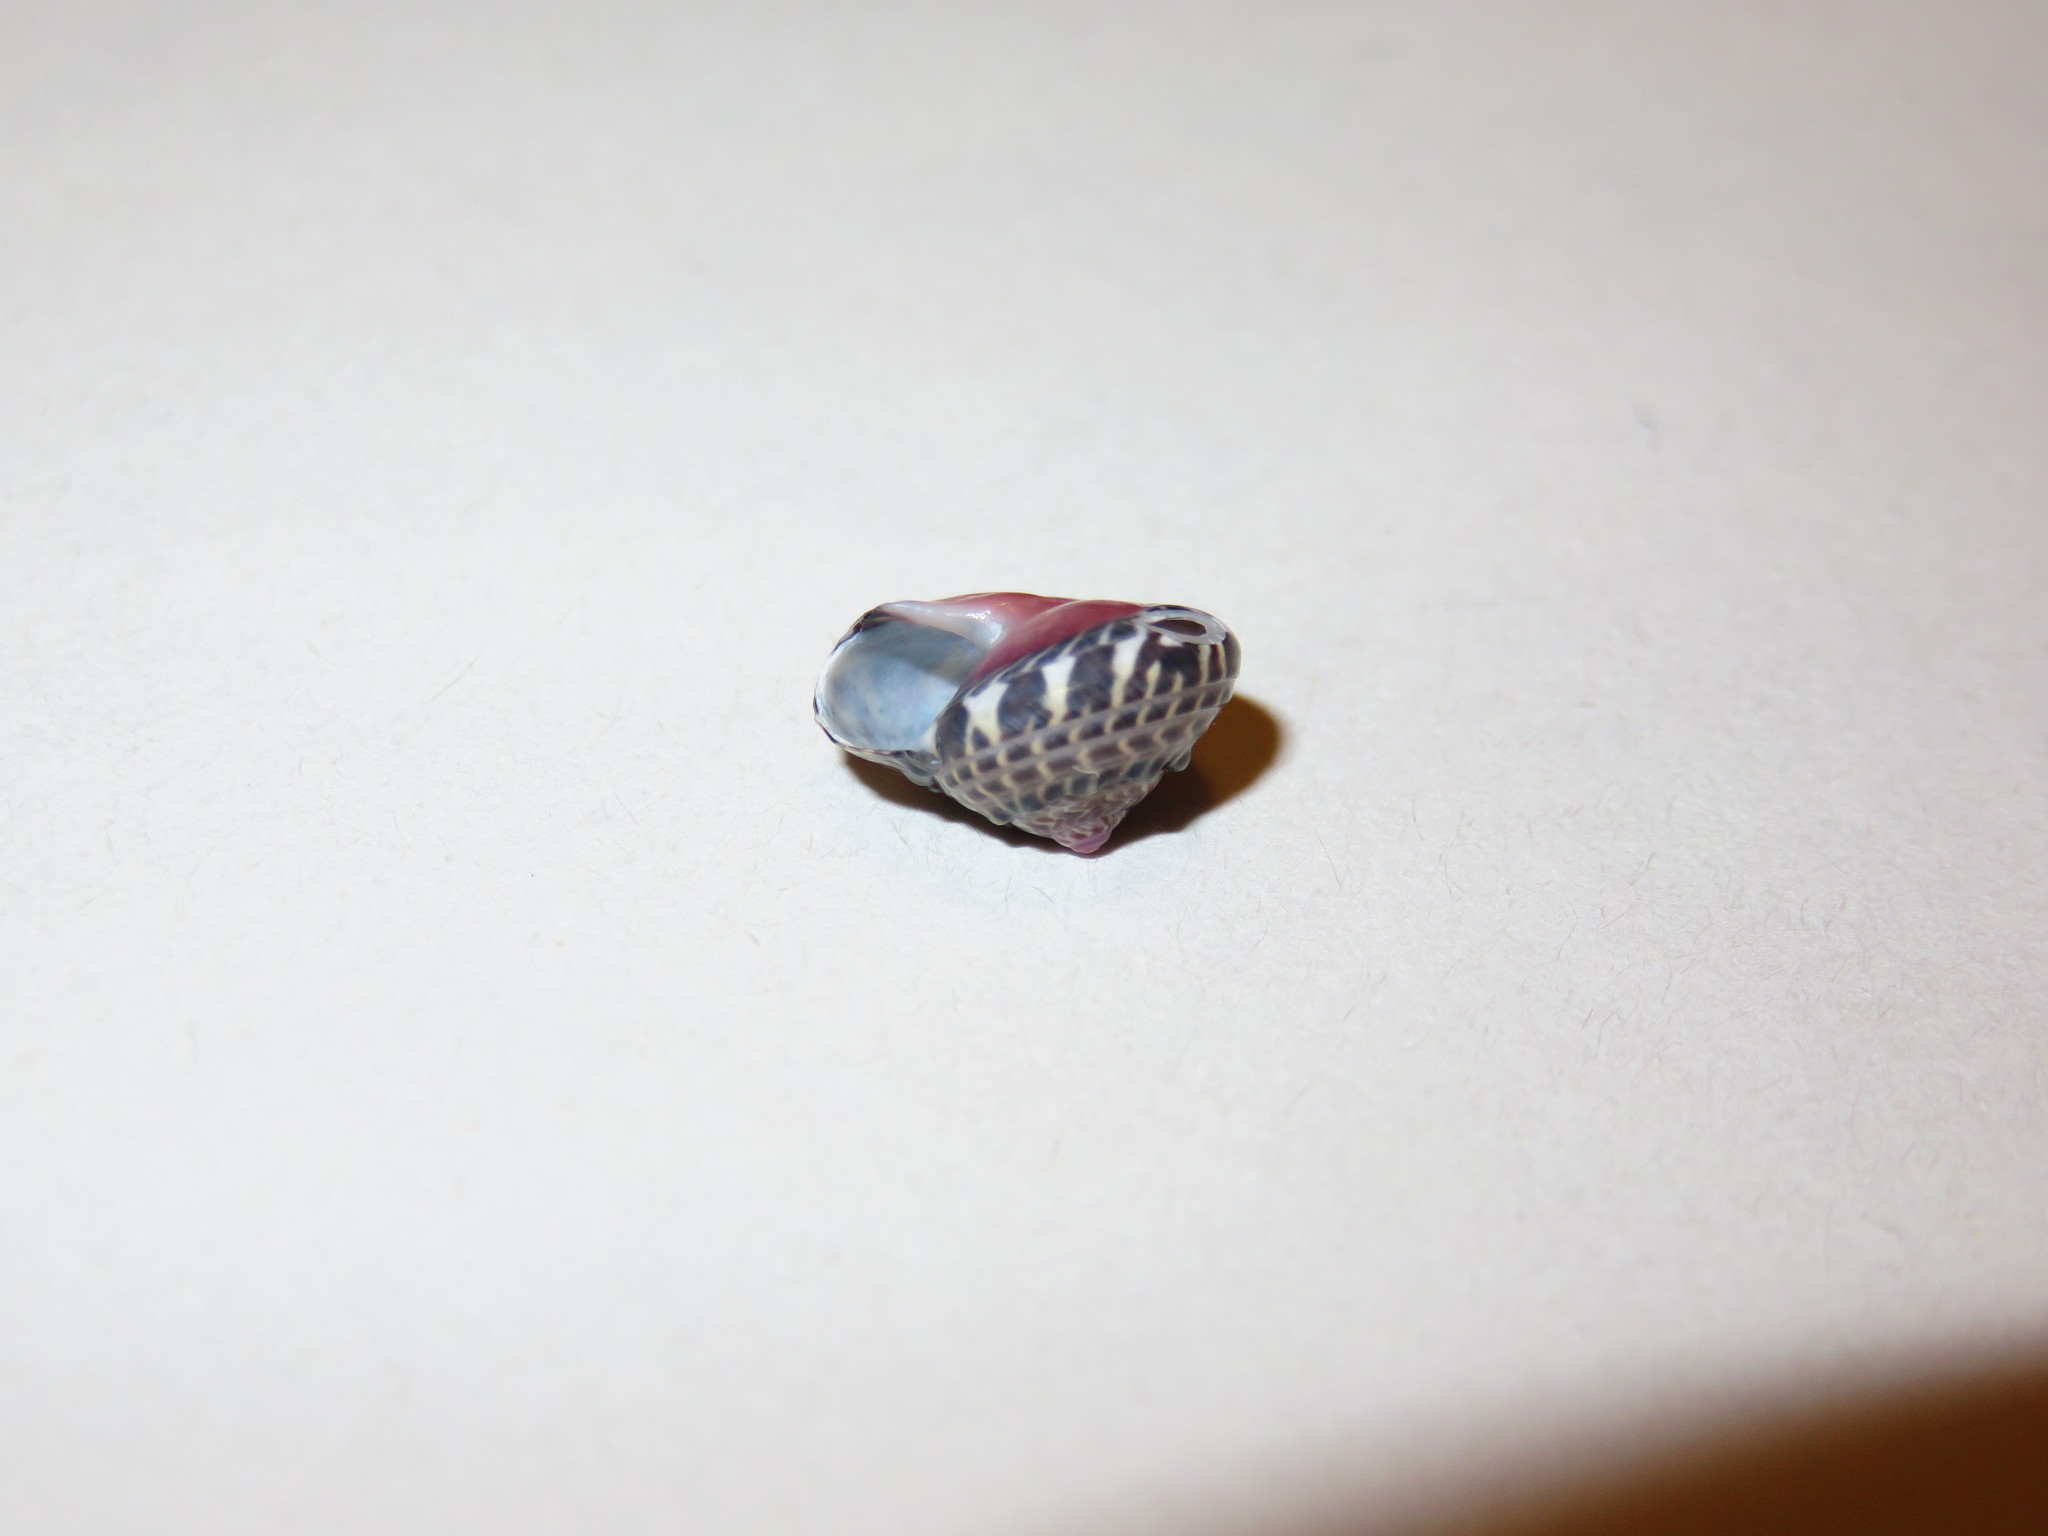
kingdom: Animalia
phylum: Mollusca
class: Gastropoda
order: Trochida
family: Trochidae
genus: Umbonium
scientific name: Umbonium costatum
